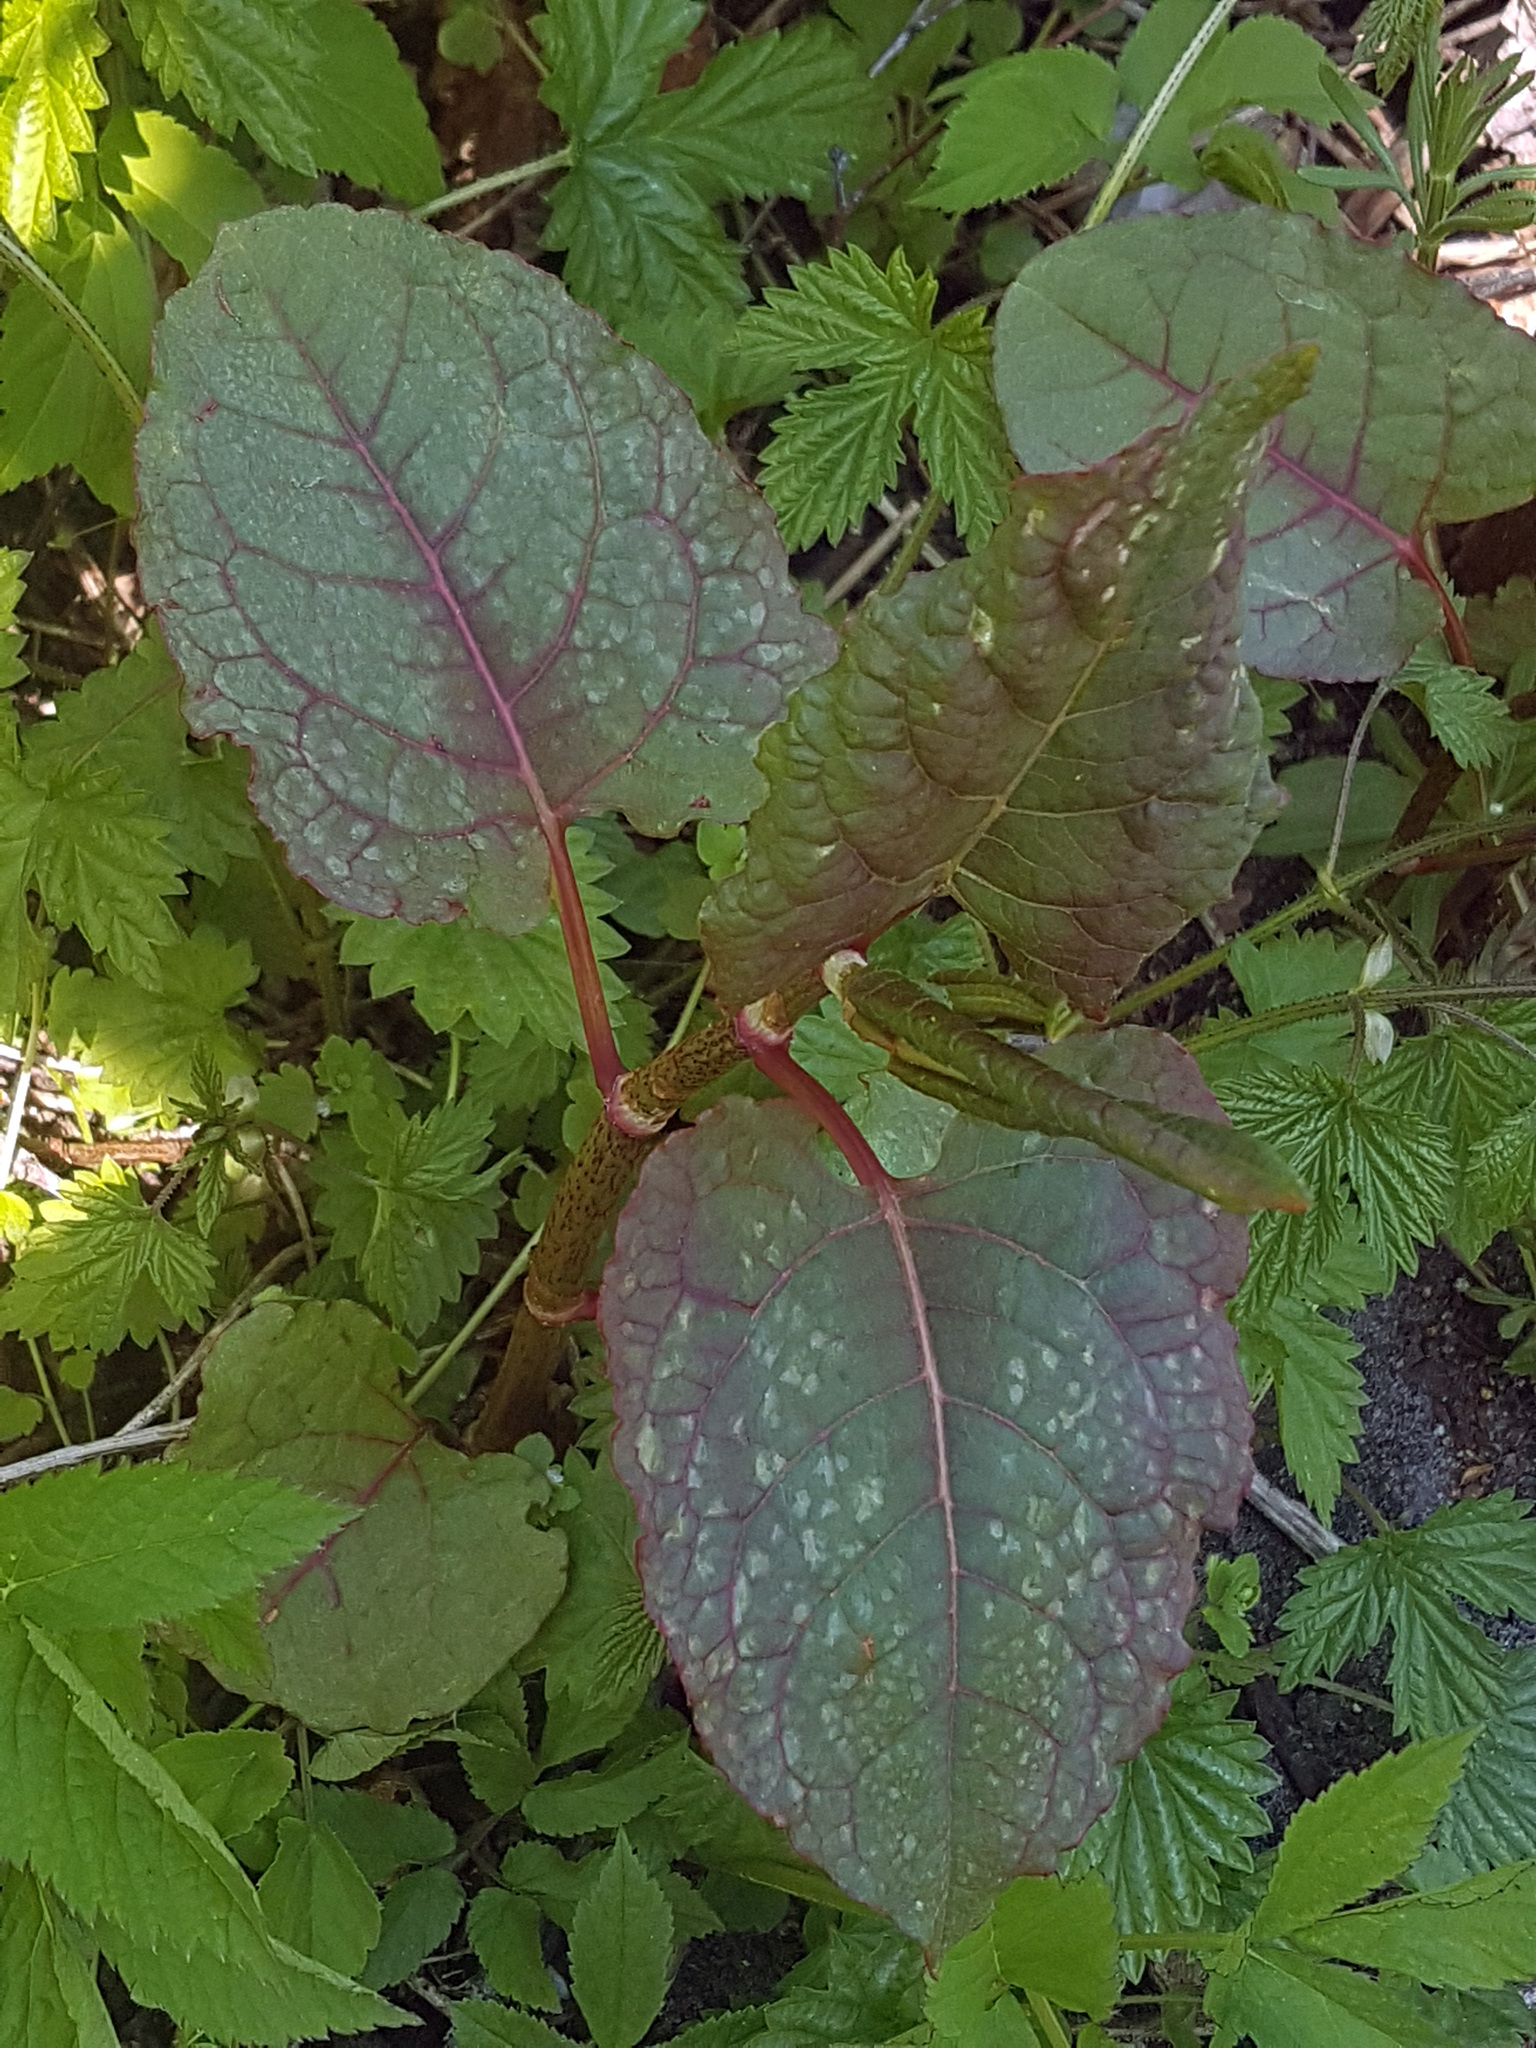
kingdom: Plantae
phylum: Tracheophyta
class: Magnoliopsida
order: Caryophyllales
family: Polygonaceae
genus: Reynoutria
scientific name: Reynoutria japonica
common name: Japanese knotweed
